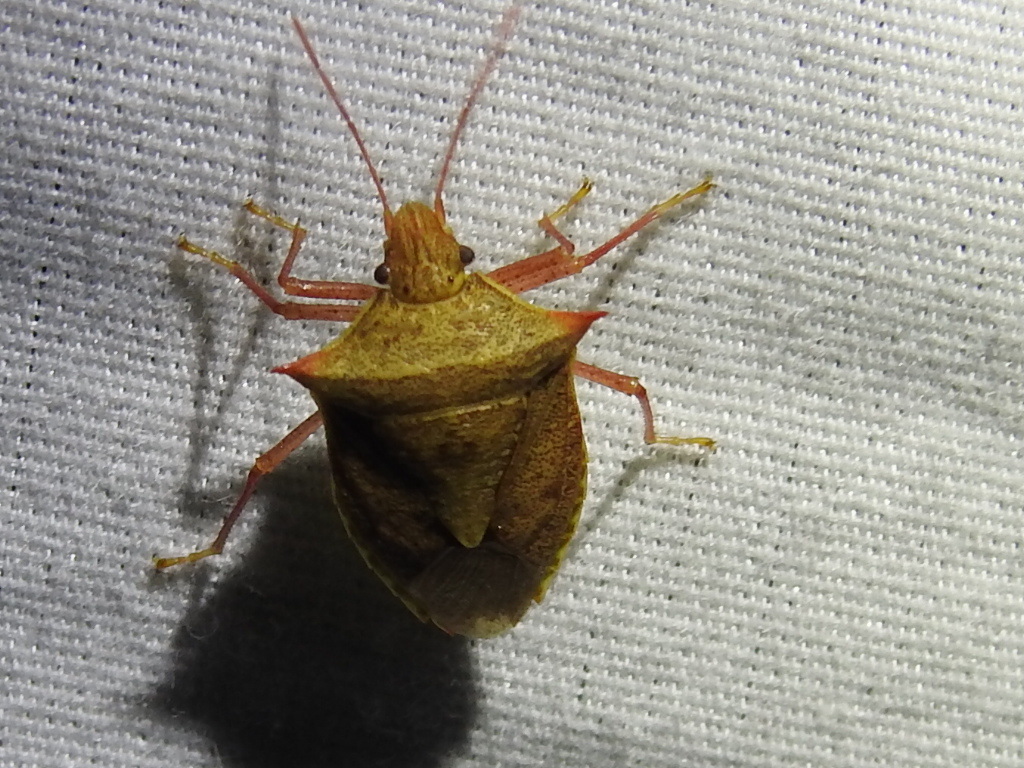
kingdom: Animalia
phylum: Arthropoda
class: Insecta
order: Hemiptera
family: Pentatomidae
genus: Euschistus
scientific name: Euschistus ictericus
